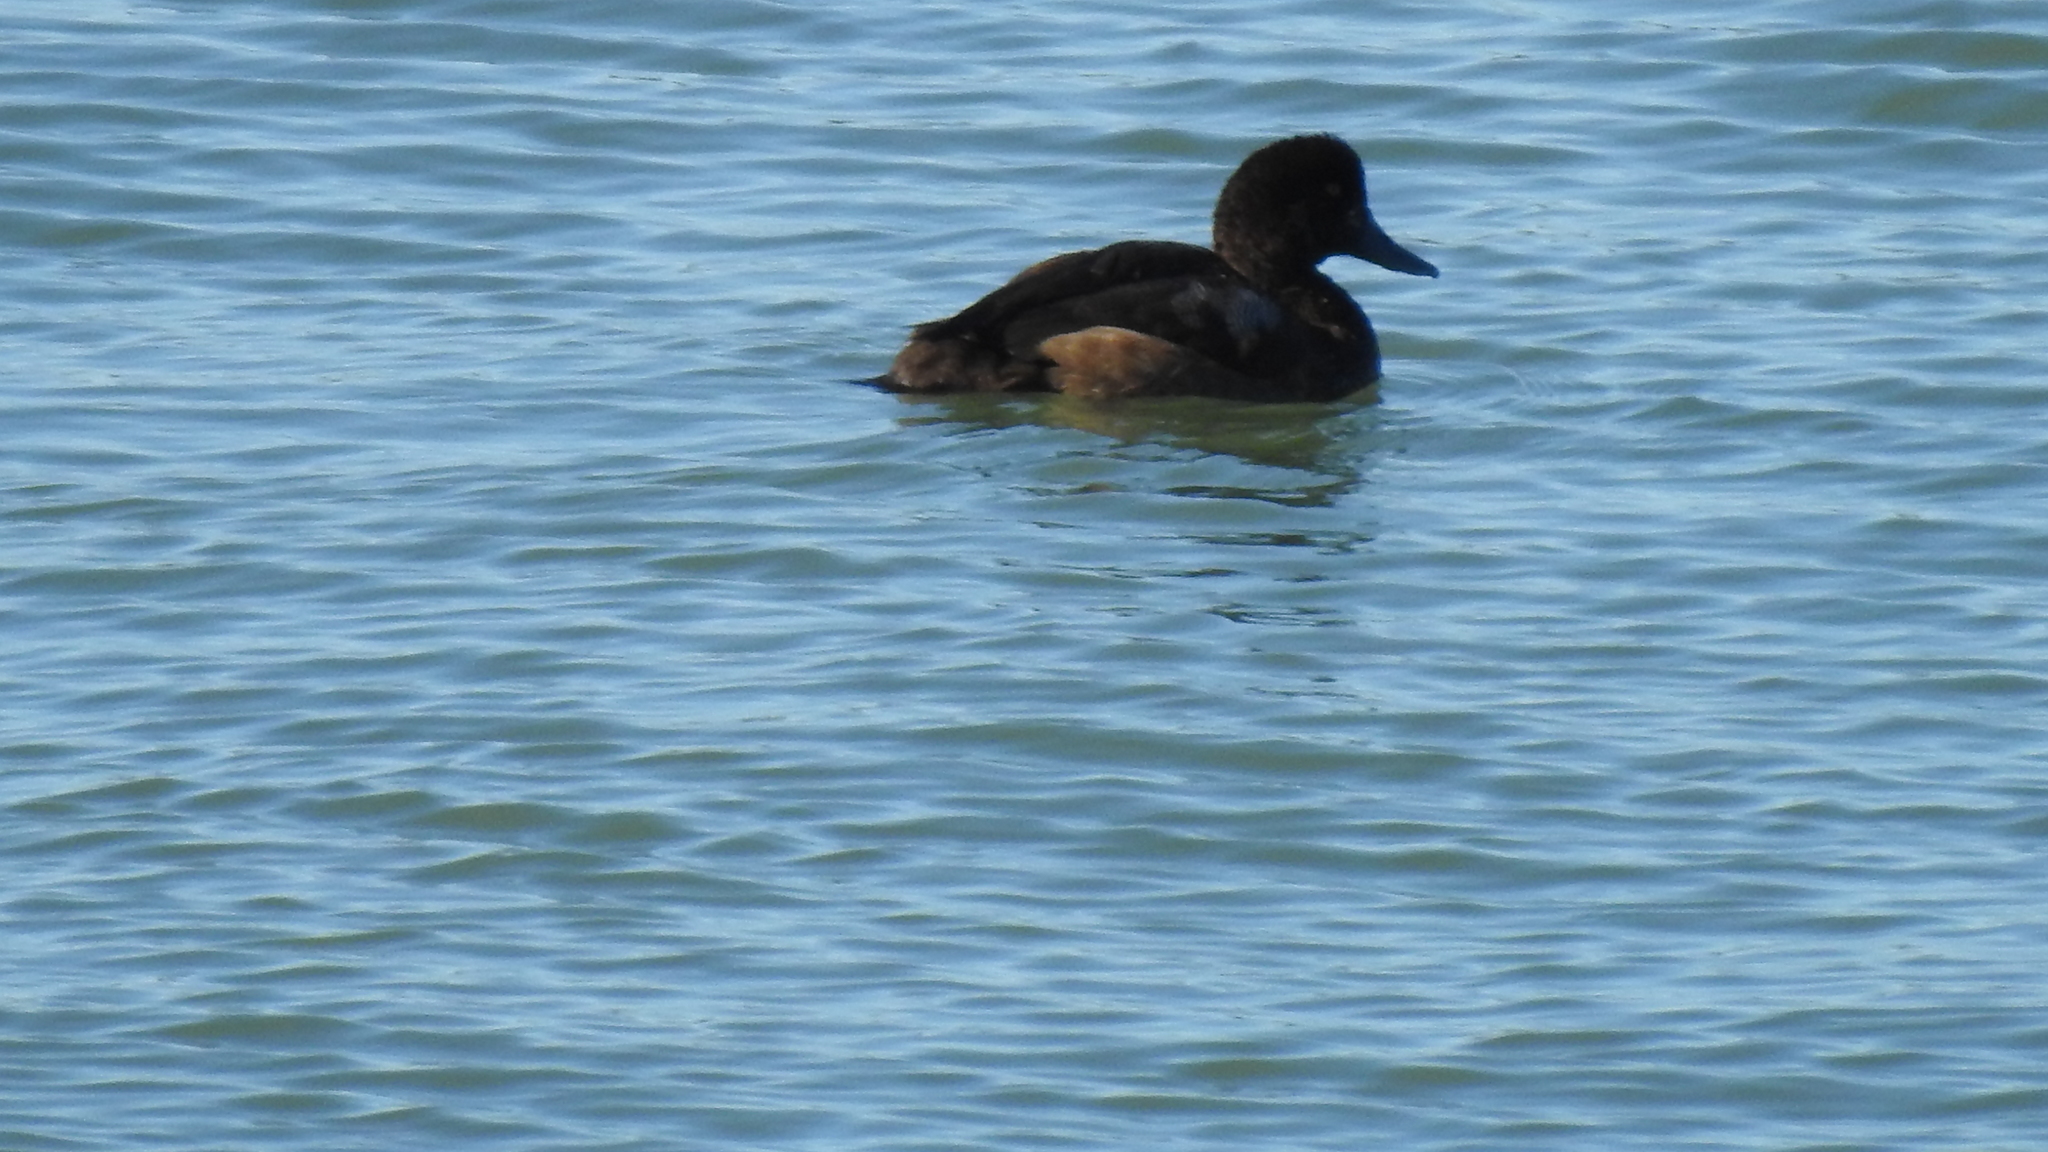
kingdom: Animalia
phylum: Chordata
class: Aves
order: Anseriformes
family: Anatidae
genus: Aythya
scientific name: Aythya marila
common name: Greater scaup
